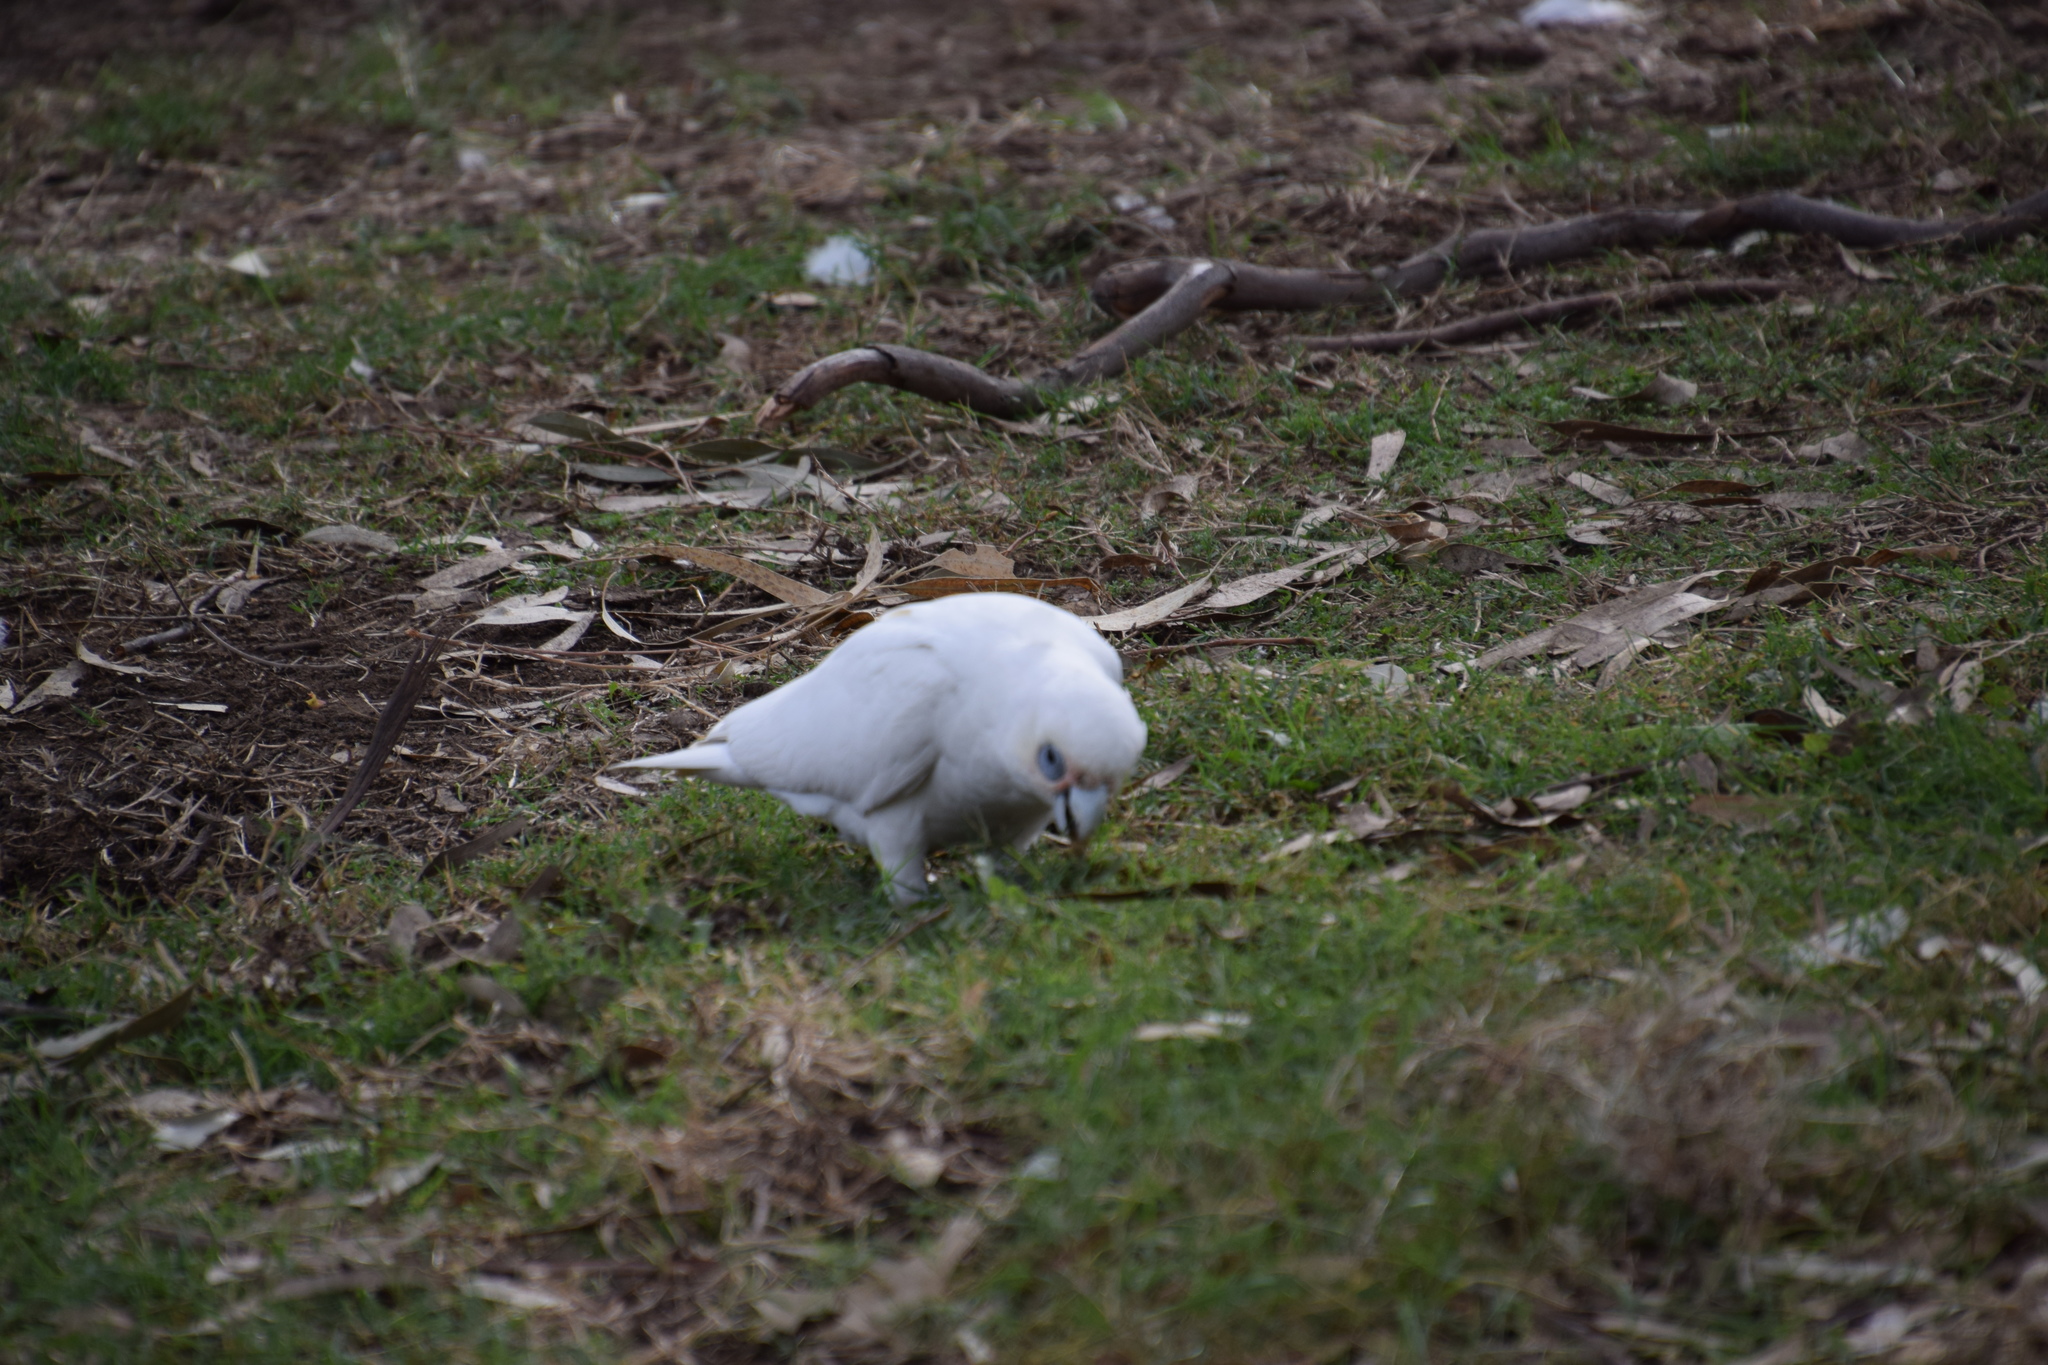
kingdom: Animalia
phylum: Chordata
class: Aves
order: Psittaciformes
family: Psittacidae
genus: Cacatua
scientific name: Cacatua sanguinea
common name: Little corella
